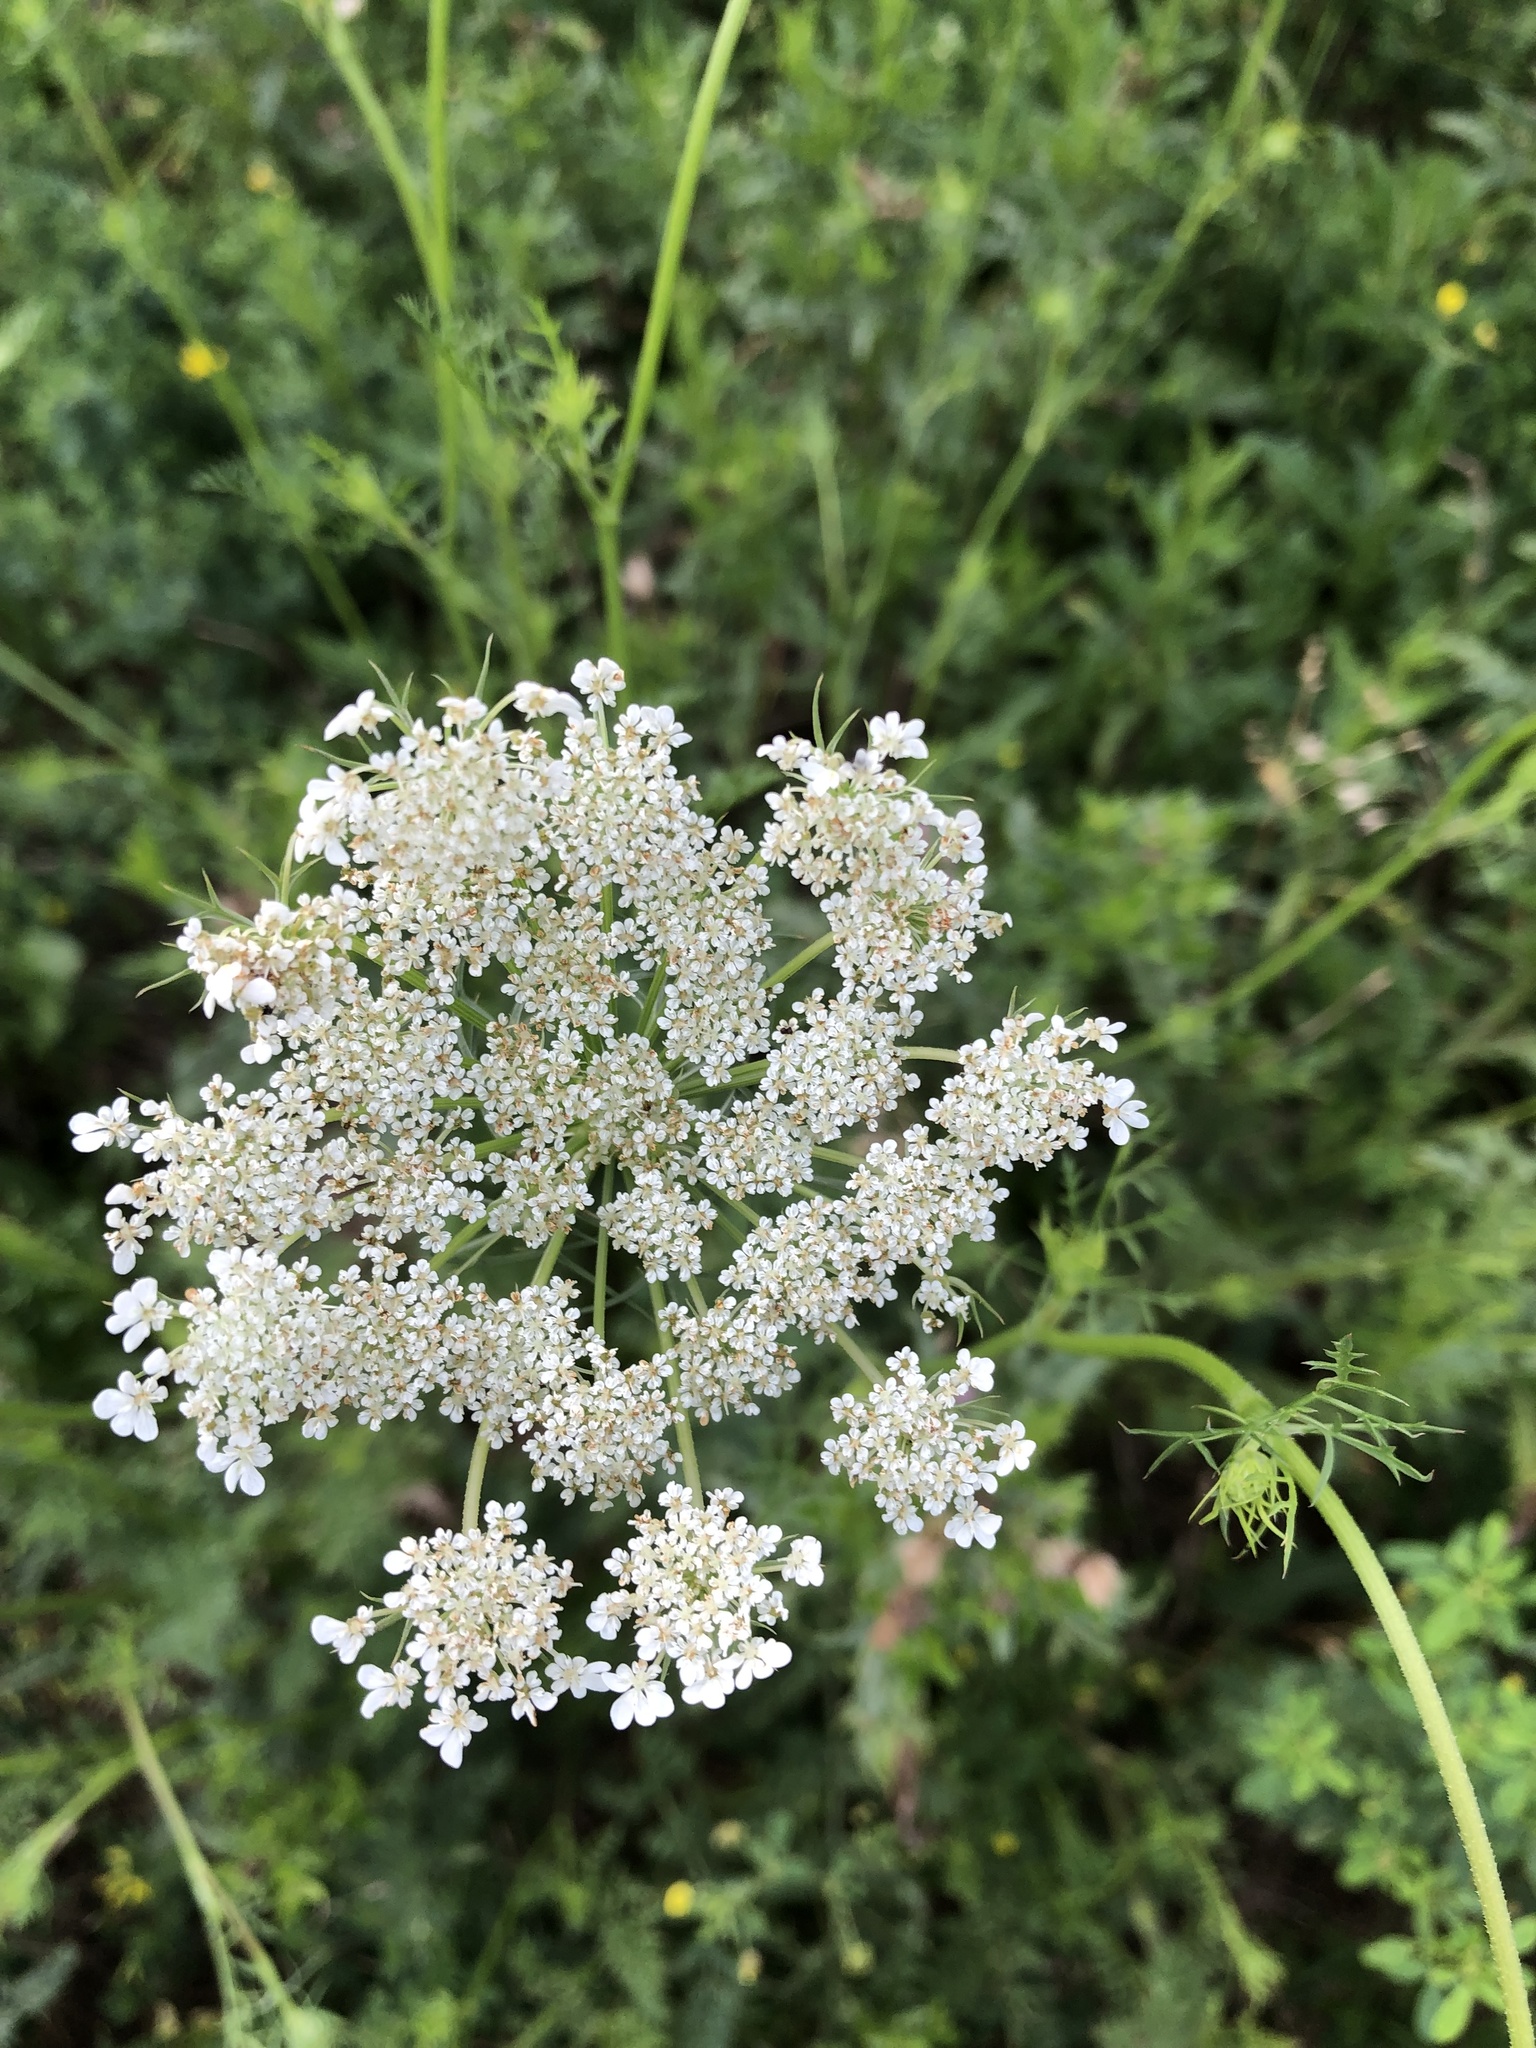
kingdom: Plantae
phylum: Tracheophyta
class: Magnoliopsida
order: Apiales
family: Apiaceae
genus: Daucus
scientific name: Daucus carota
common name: Wild carrot
